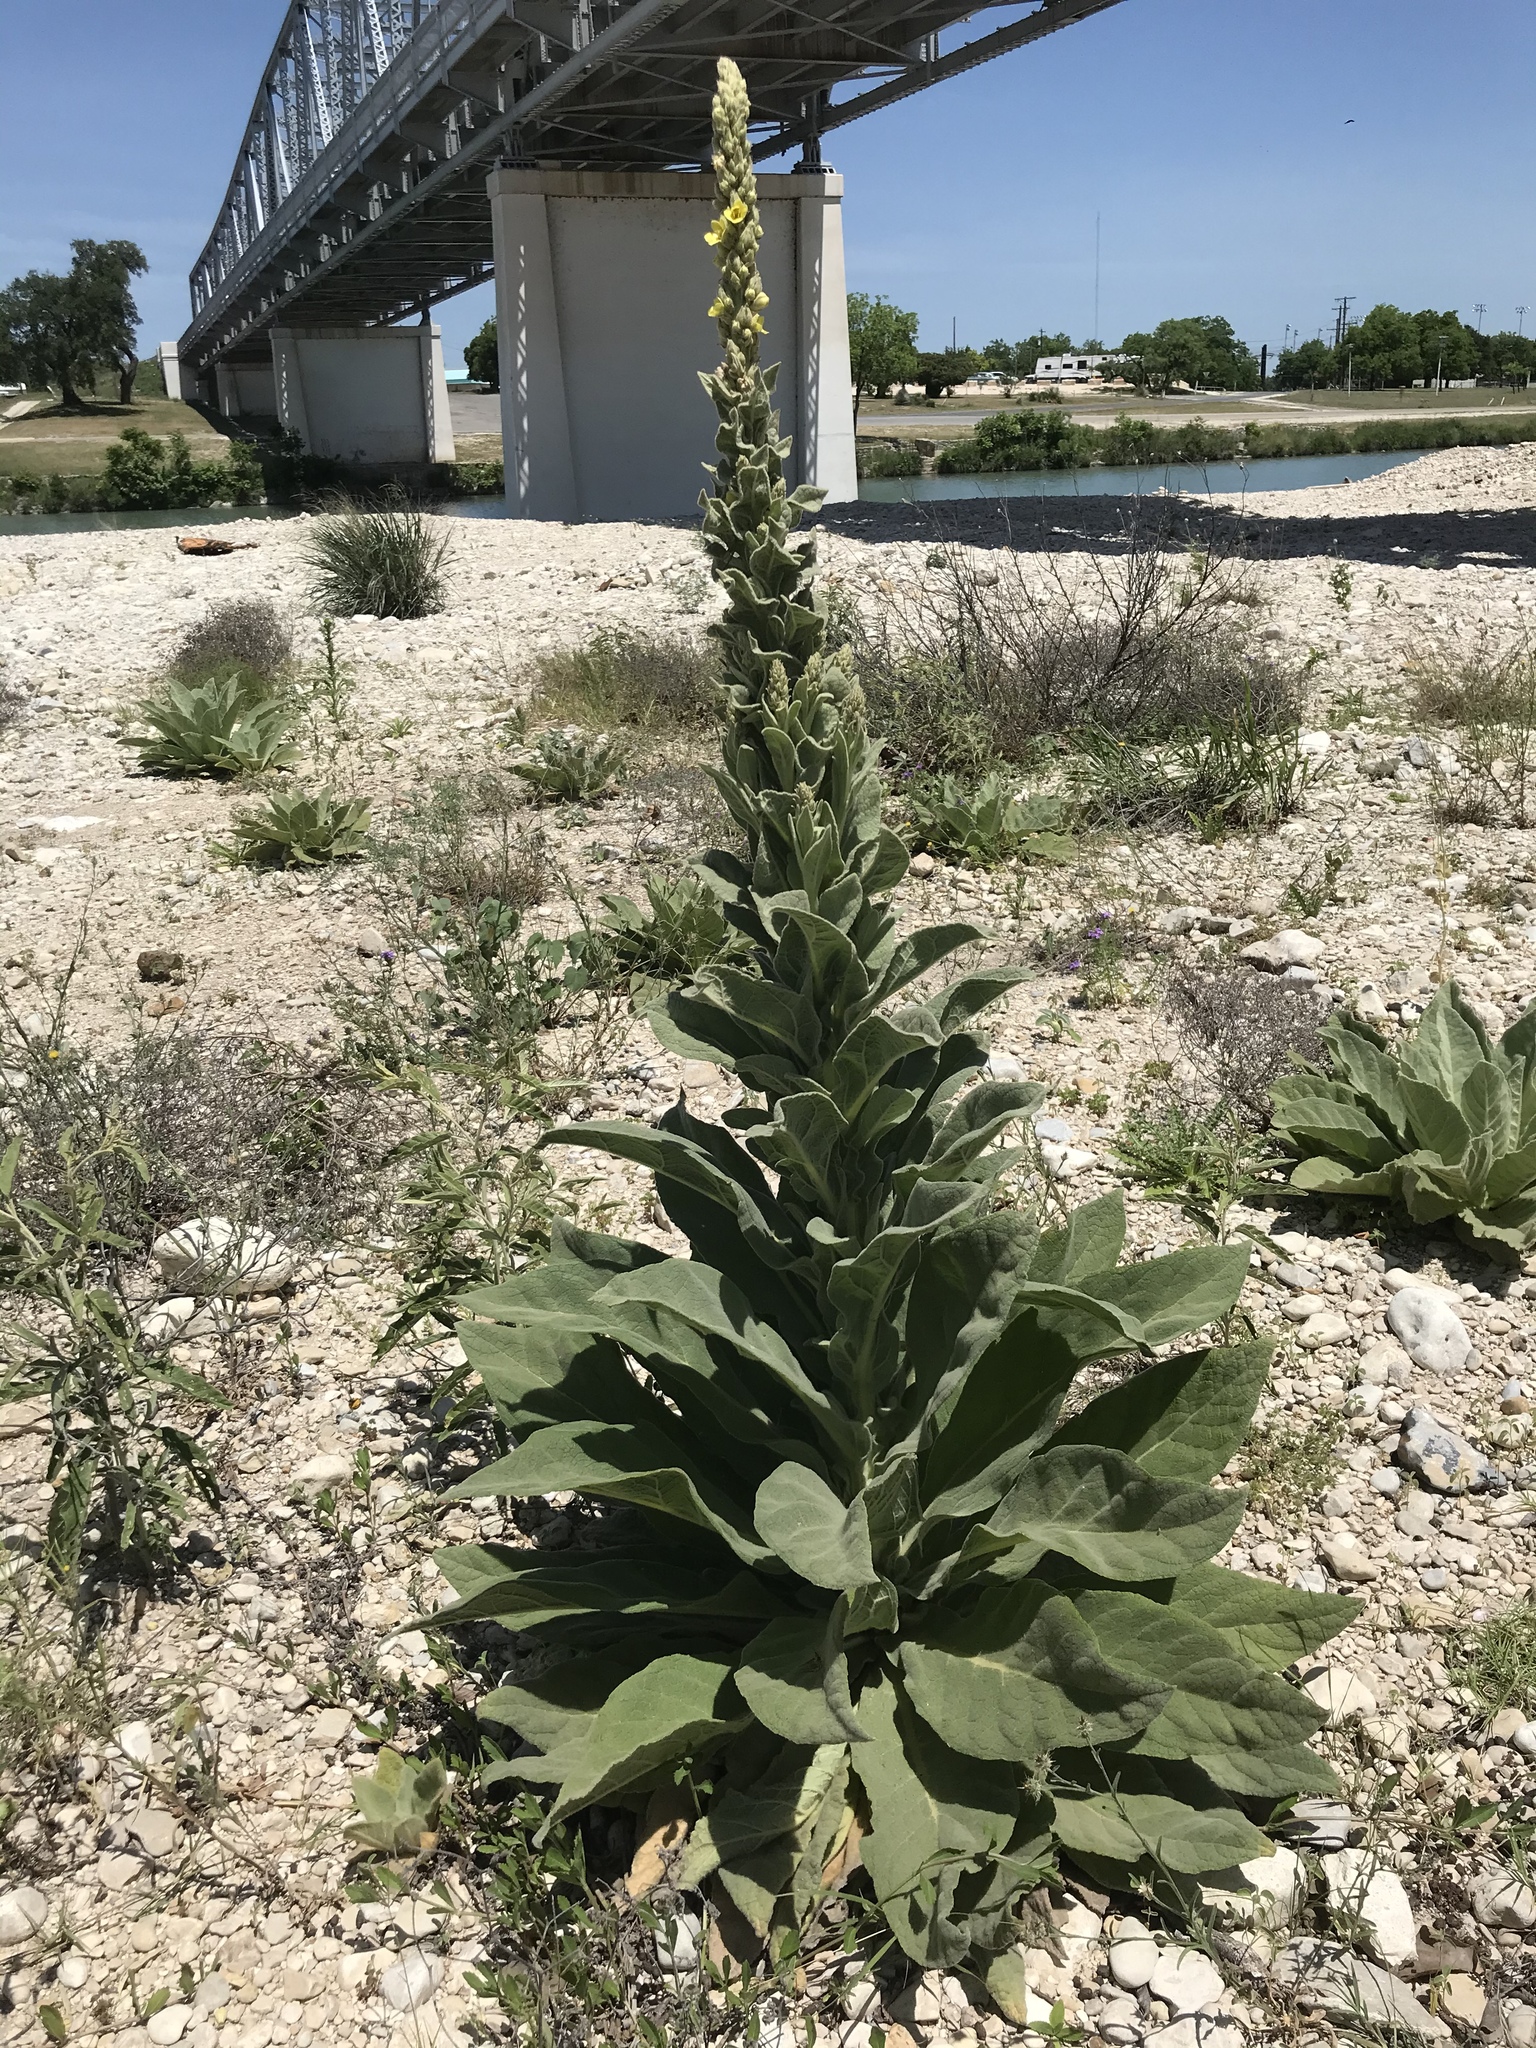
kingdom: Plantae
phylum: Tracheophyta
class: Magnoliopsida
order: Lamiales
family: Scrophulariaceae
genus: Verbascum
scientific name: Verbascum thapsus
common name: Common mullein
